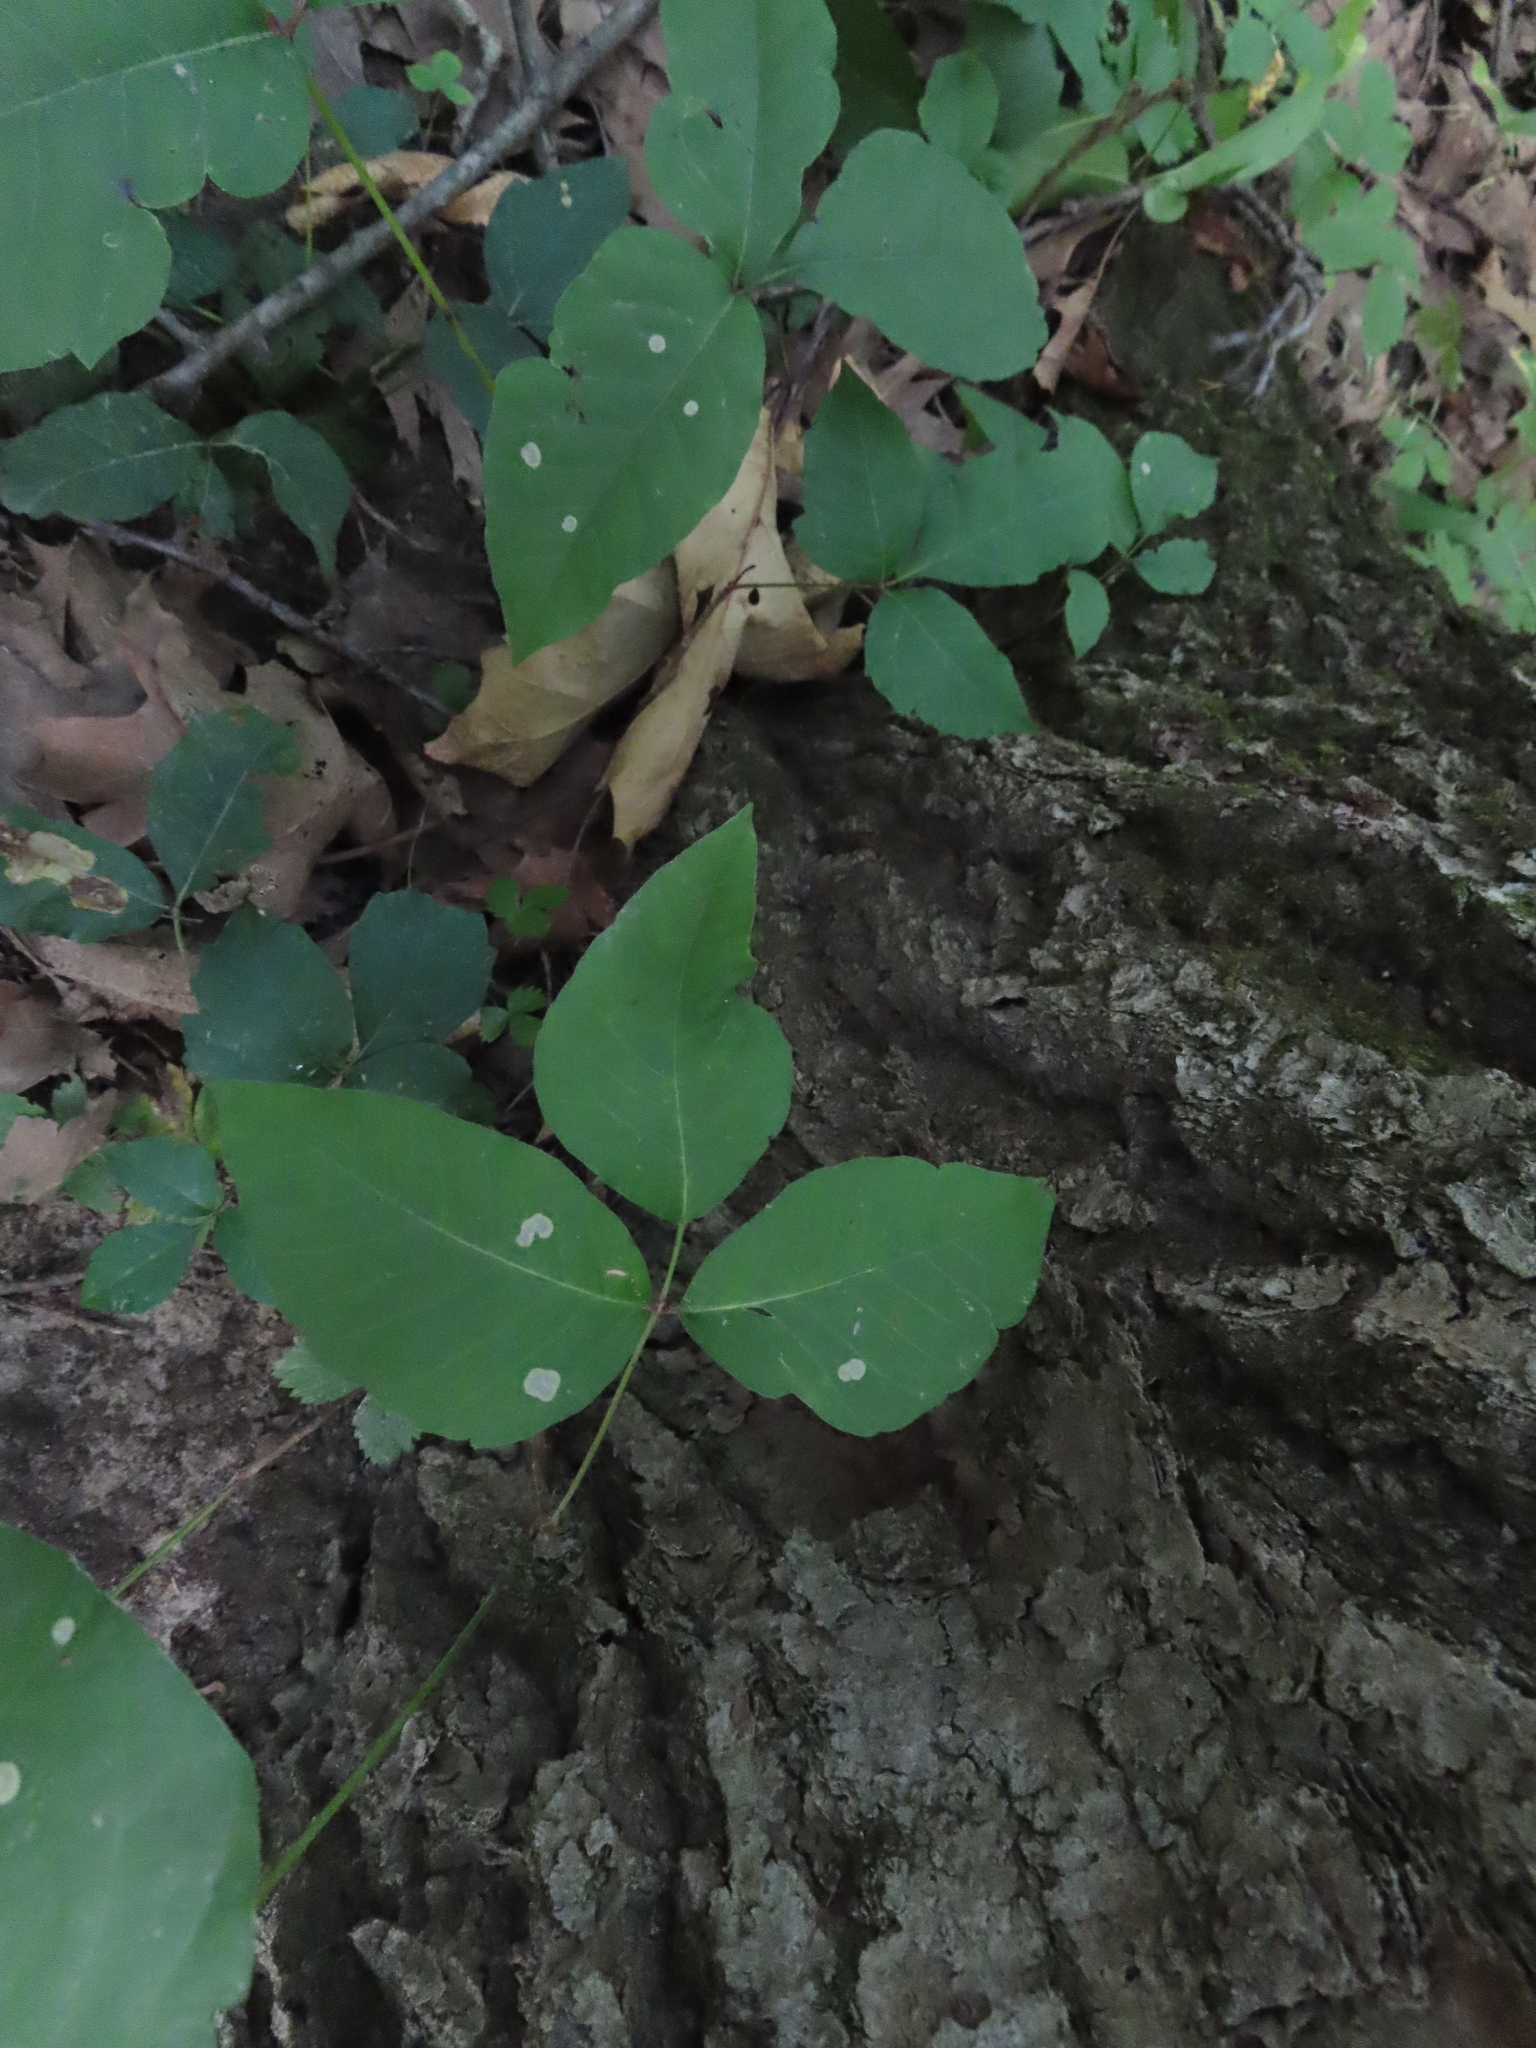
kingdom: Plantae
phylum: Tracheophyta
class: Magnoliopsida
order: Sapindales
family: Anacardiaceae
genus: Toxicodendron
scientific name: Toxicodendron radicans
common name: Poison ivy
